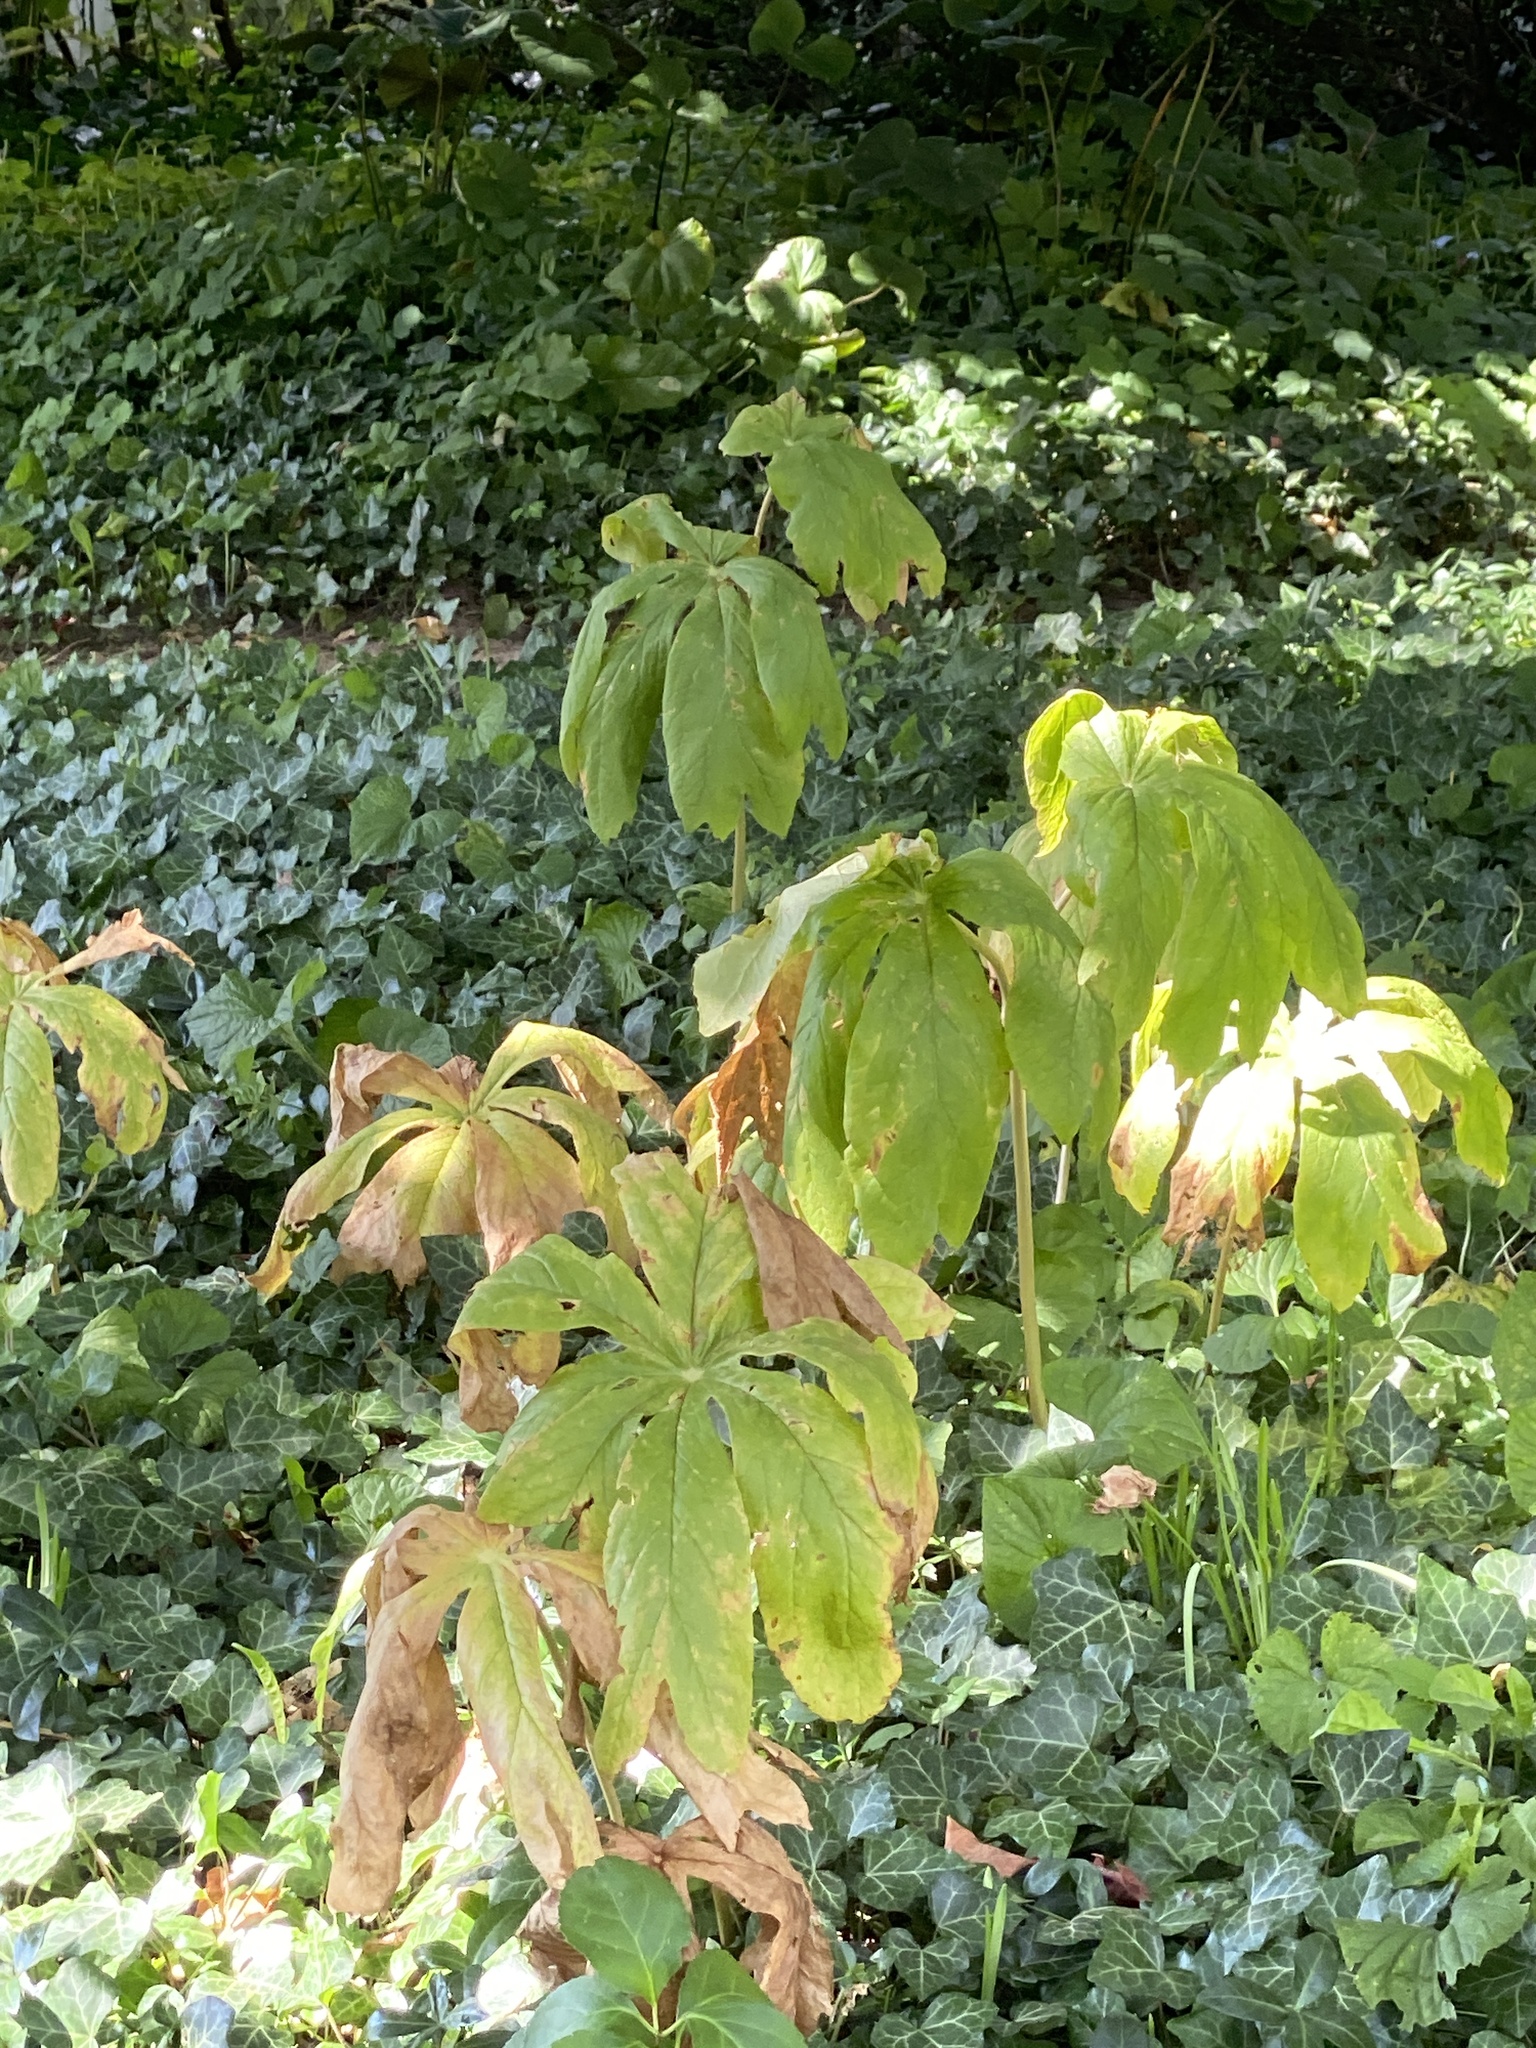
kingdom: Plantae
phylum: Tracheophyta
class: Magnoliopsida
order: Ranunculales
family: Berberidaceae
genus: Podophyllum
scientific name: Podophyllum peltatum
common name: Wild mandrake
